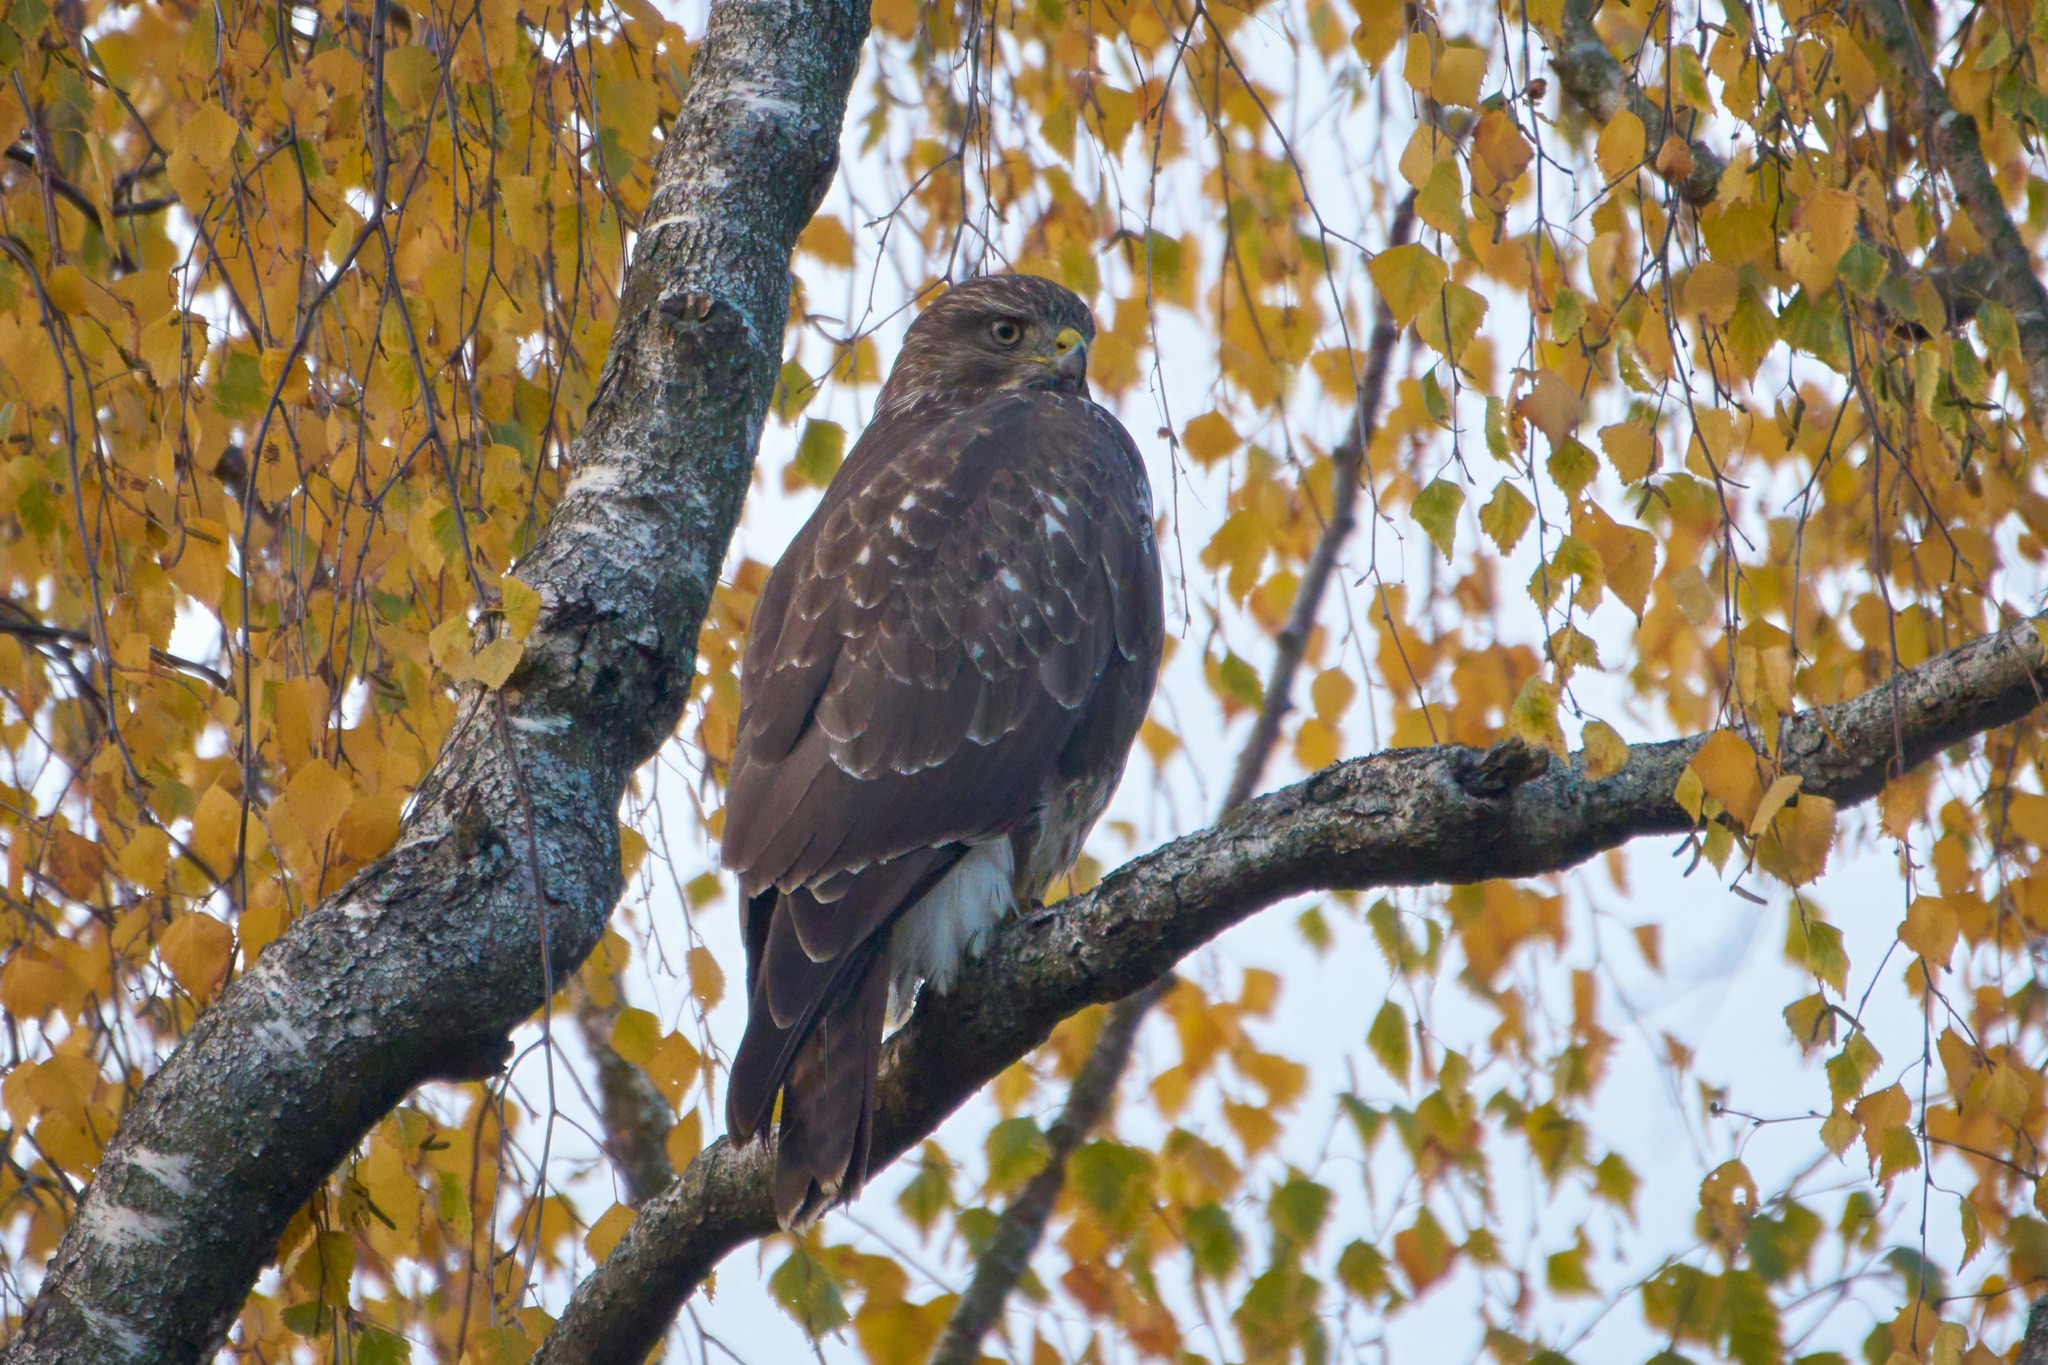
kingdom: Animalia
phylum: Chordata
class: Aves
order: Accipitriformes
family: Accipitridae
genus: Buteo
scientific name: Buteo buteo
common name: Common buzzard
